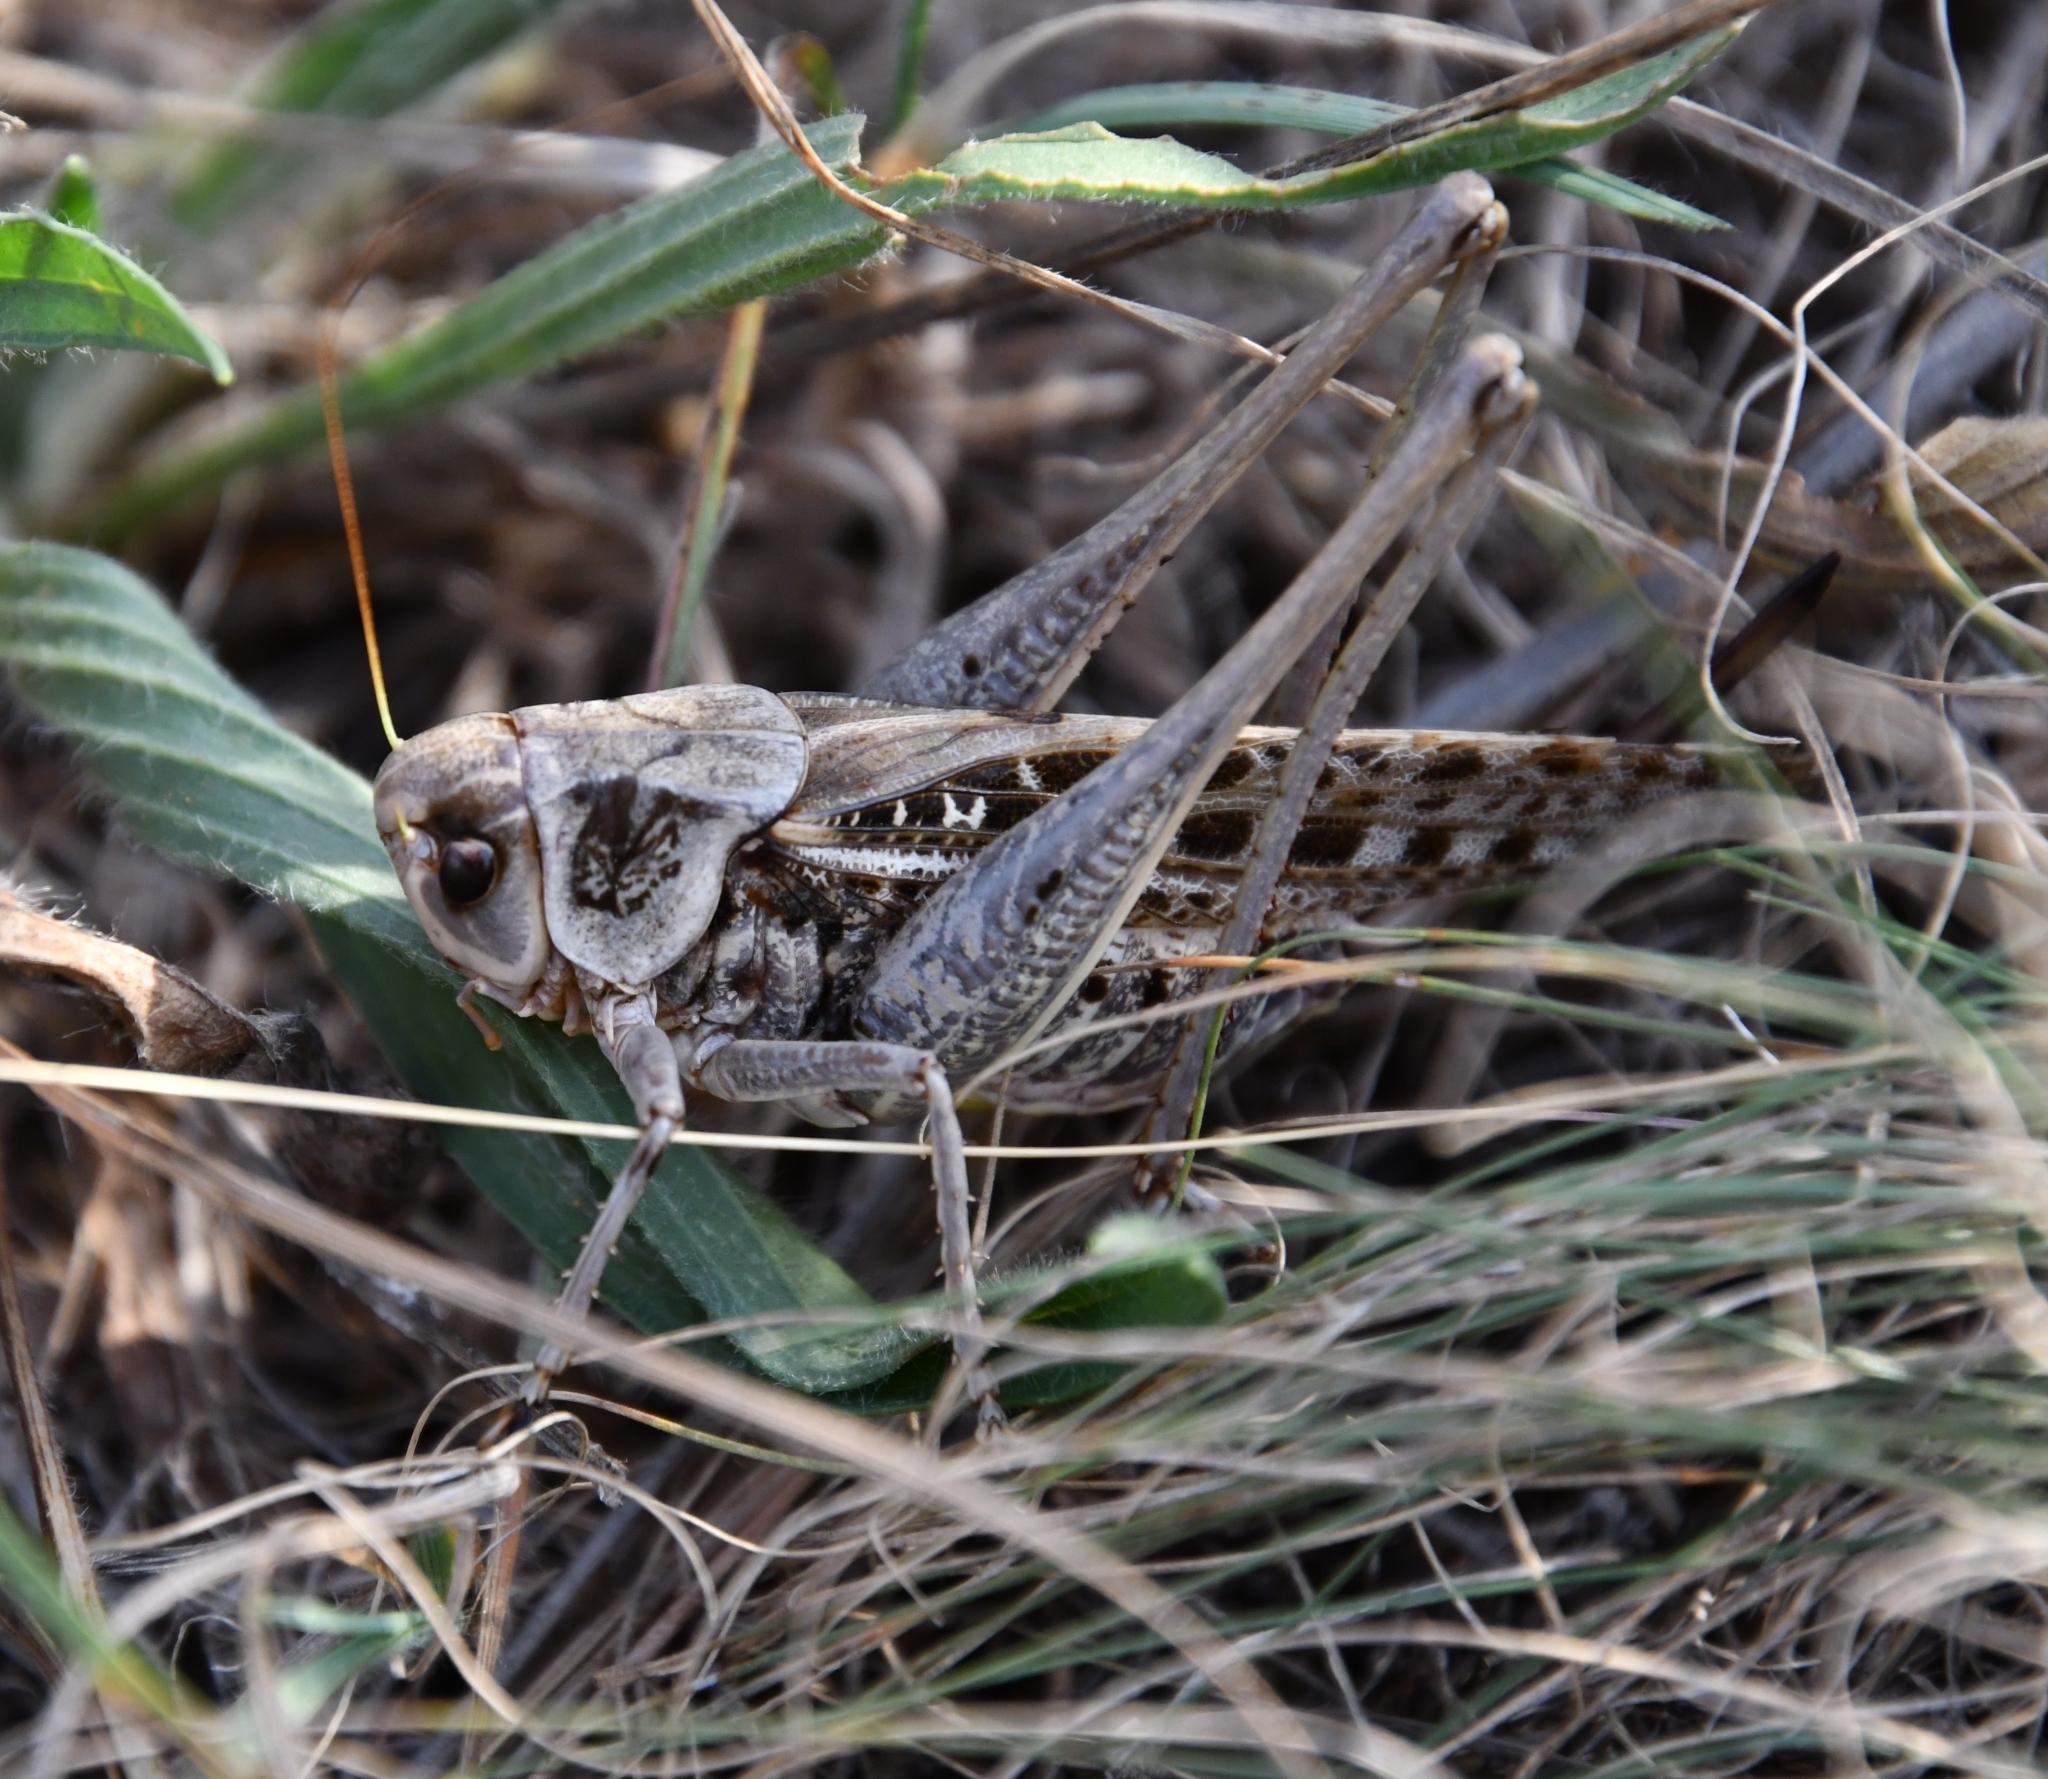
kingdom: Animalia
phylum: Arthropoda
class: Insecta
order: Orthoptera
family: Tettigoniidae
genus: Decticus
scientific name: Decticus verrucivorus
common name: Wart-biter
